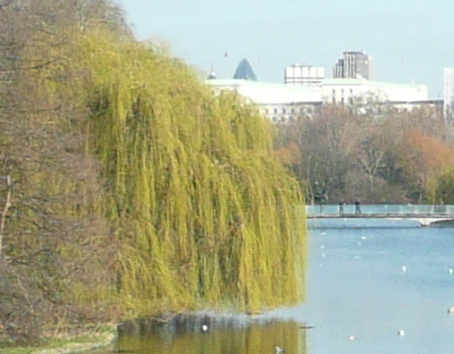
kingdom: Plantae
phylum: Tracheophyta
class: Magnoliopsida
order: Malpighiales
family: Salicaceae
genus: Salix
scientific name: Salix pendulina
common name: Wisconsin weeping willow
